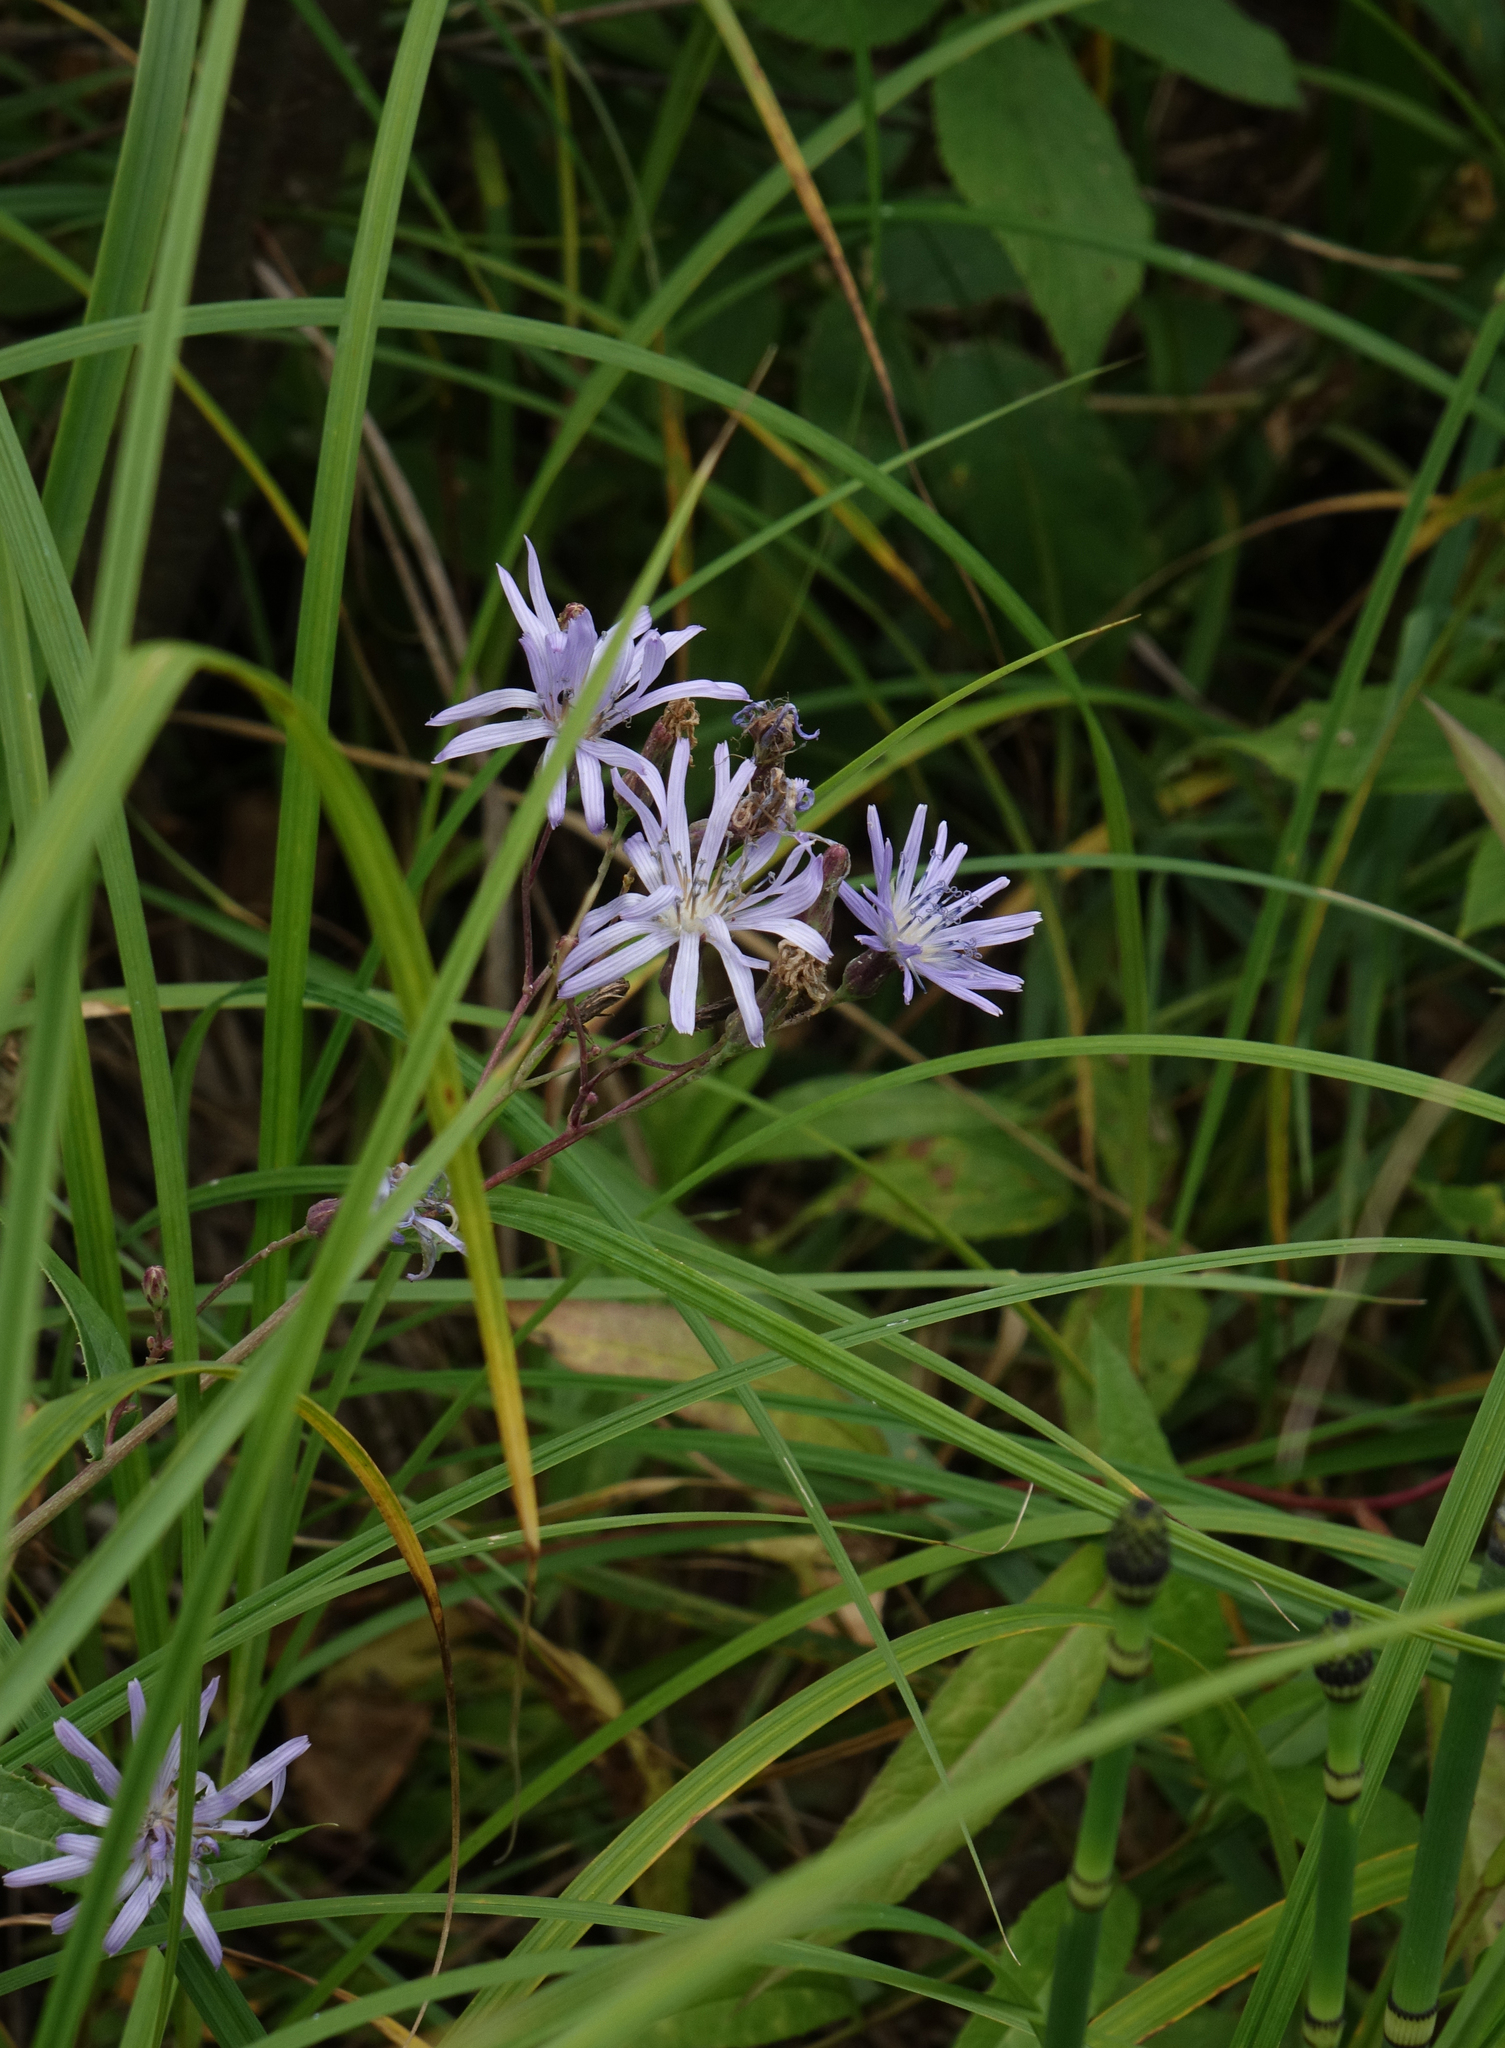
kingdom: Plantae
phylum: Tracheophyta
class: Magnoliopsida
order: Asterales
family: Asteraceae
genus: Lactuca
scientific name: Lactuca sibirica
